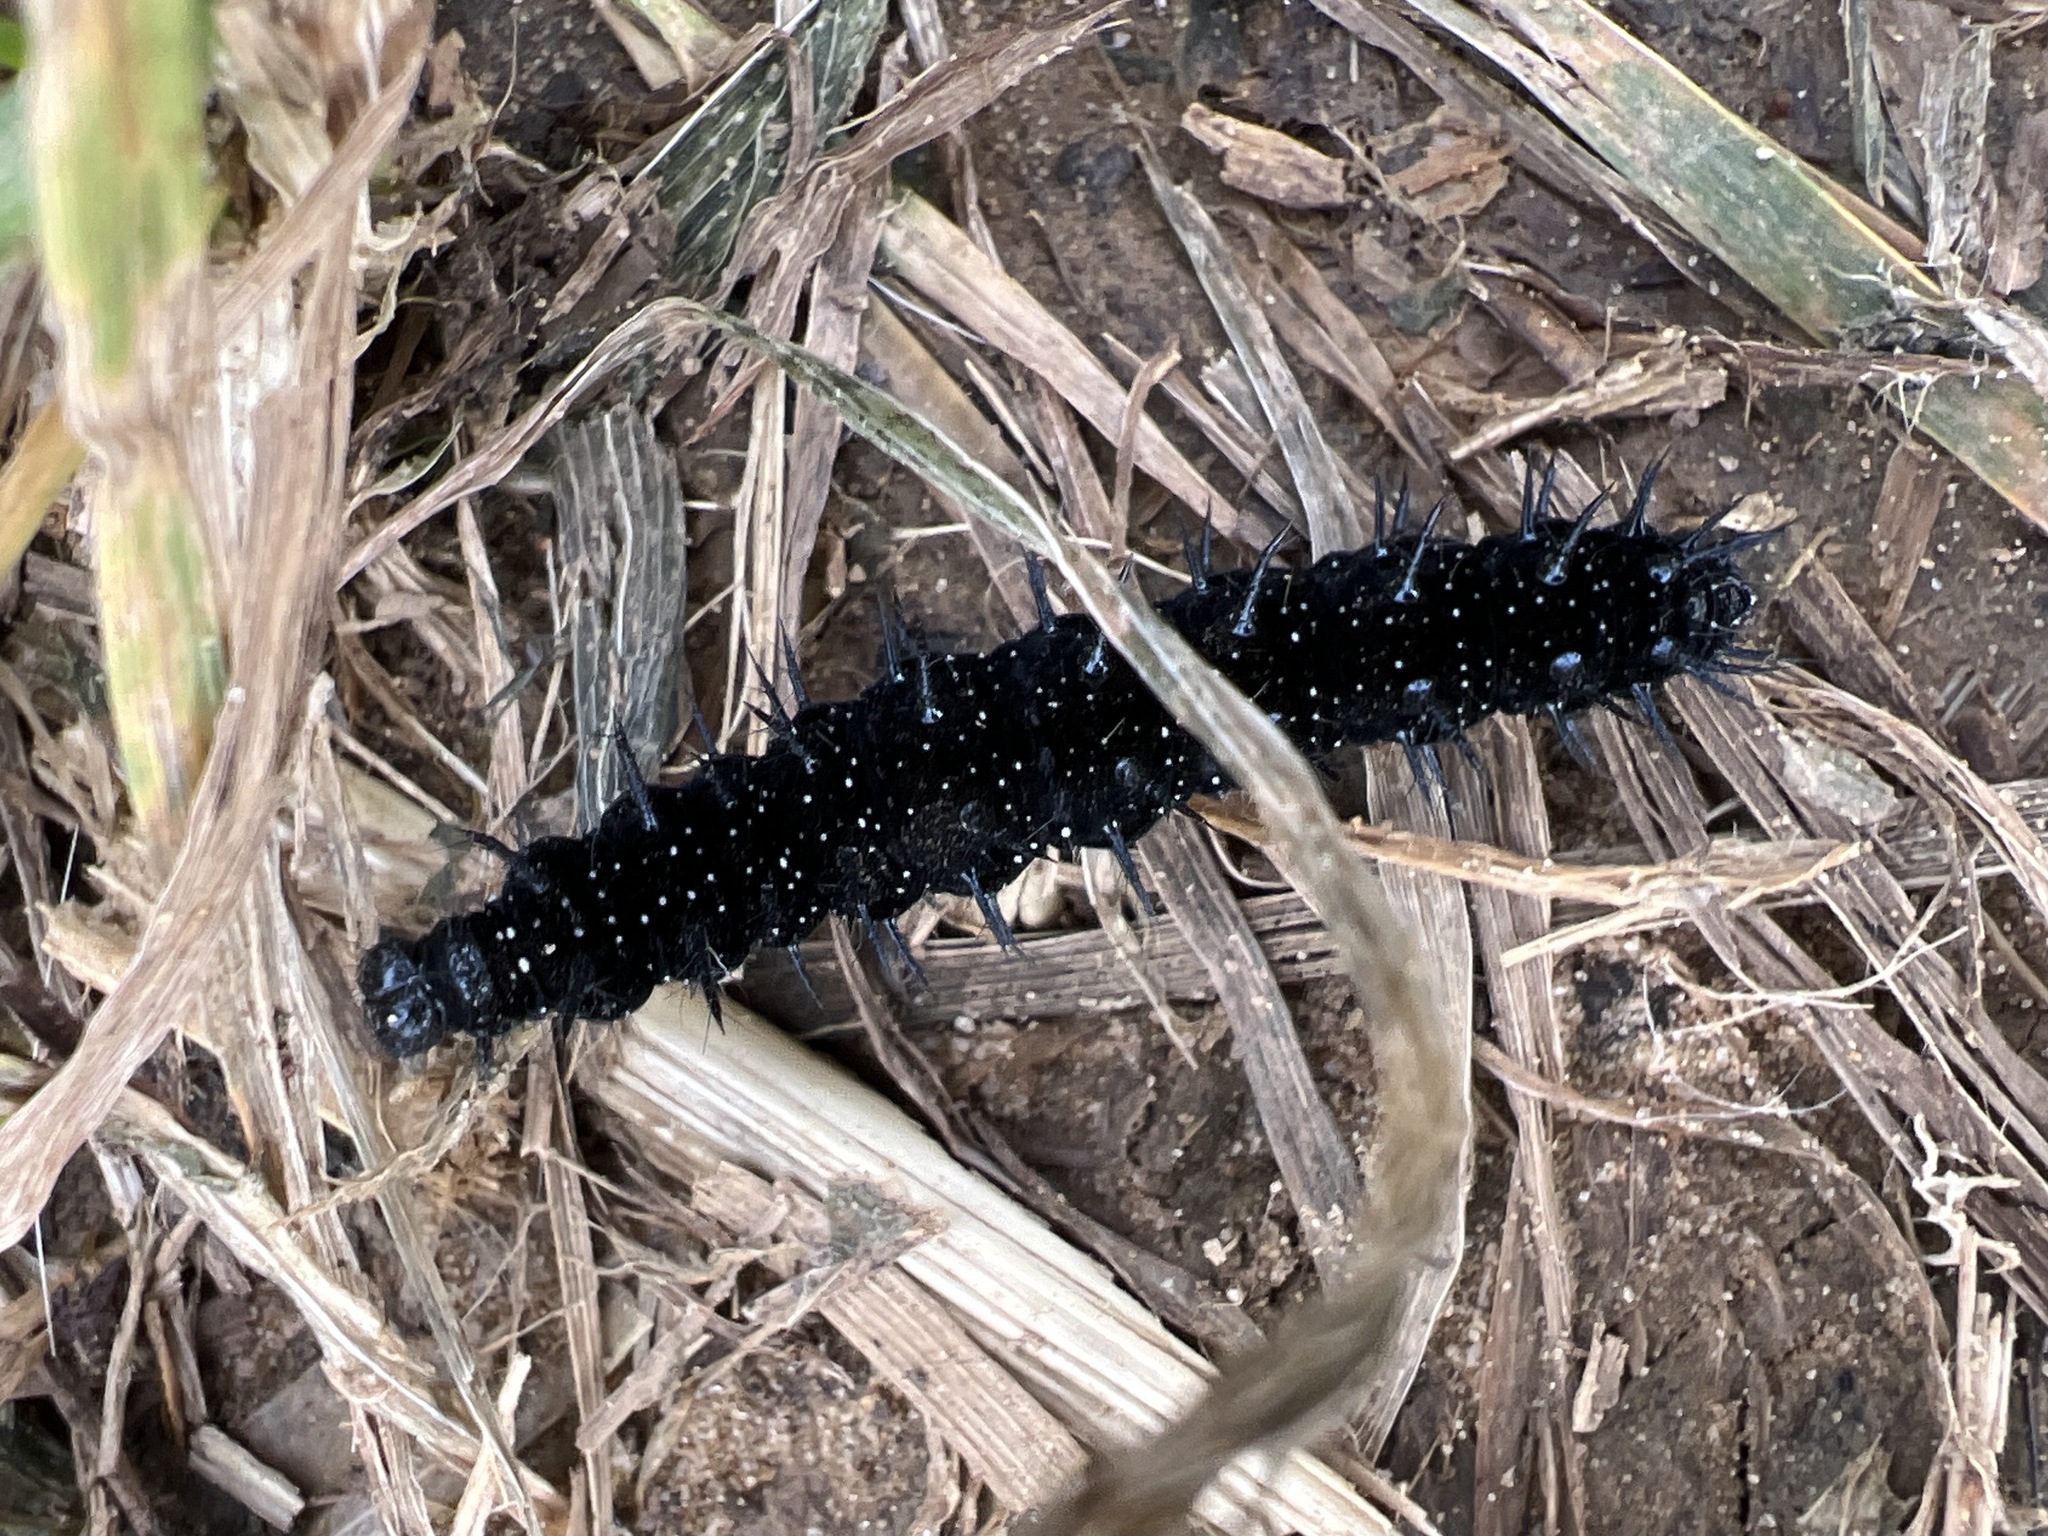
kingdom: Animalia
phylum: Arthropoda
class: Insecta
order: Lepidoptera
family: Nymphalidae
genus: Aglais
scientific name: Aglais io
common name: Peacock
